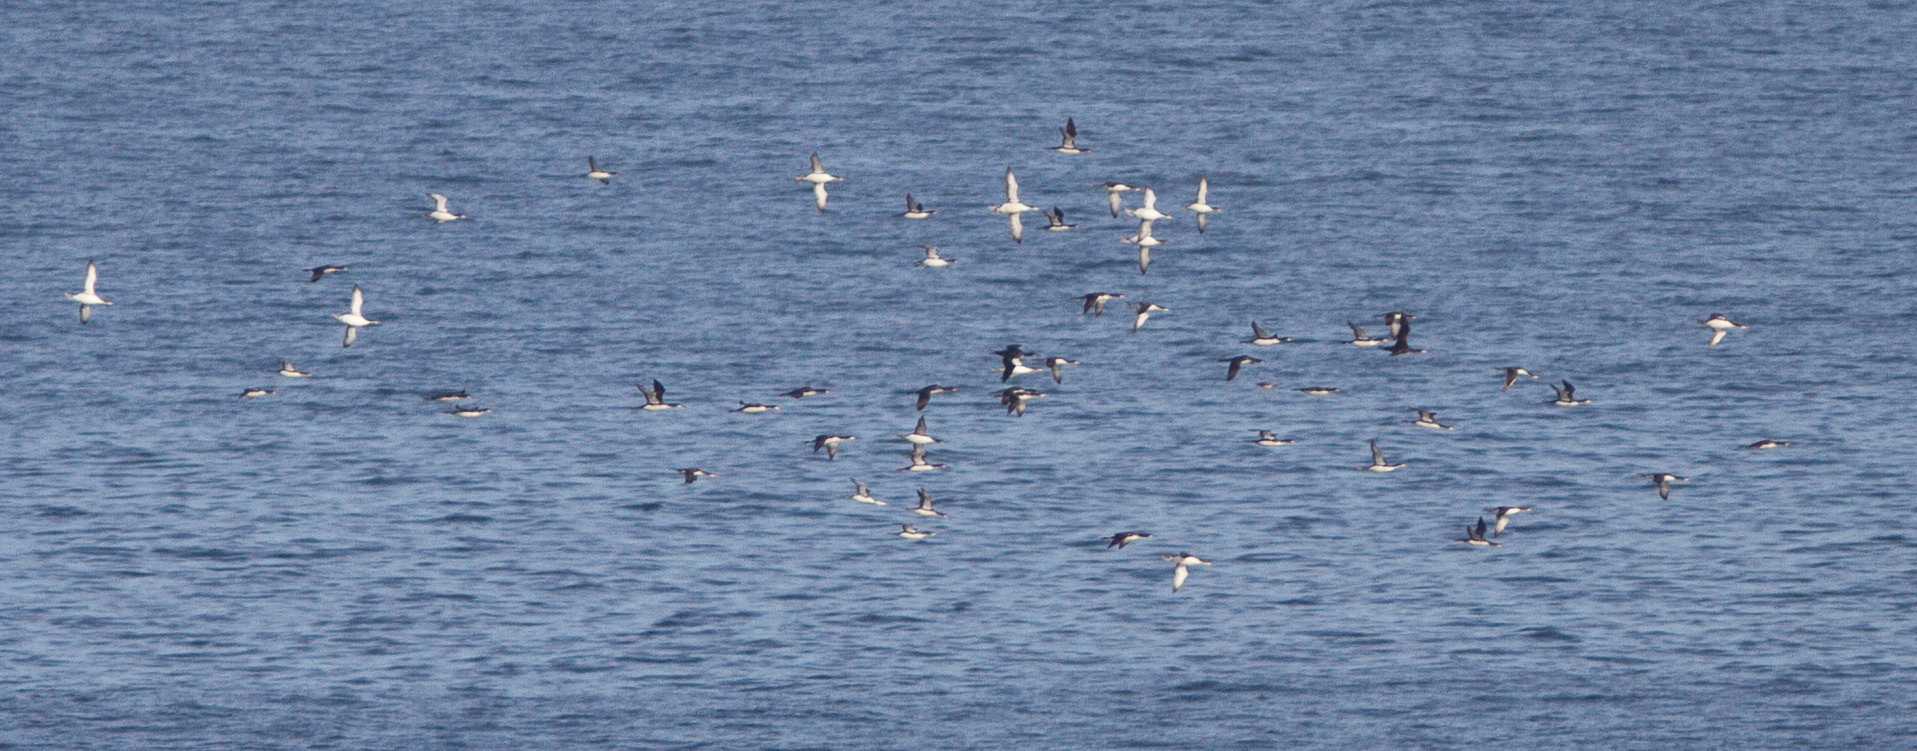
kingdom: Animalia
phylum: Chordata
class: Aves
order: Gaviiformes
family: Gaviidae
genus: Gavia
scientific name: Gavia pacifica
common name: Pacific loon
